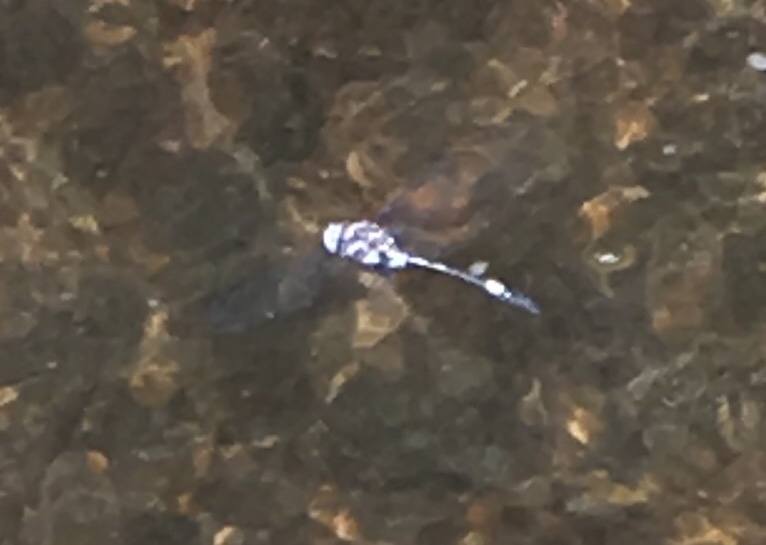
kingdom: Animalia
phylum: Arthropoda
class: Insecta
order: Odonata
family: Libellulidae
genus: Brechmorhoga
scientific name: Brechmorhoga mendax
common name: Pale-faced clubskimmer
